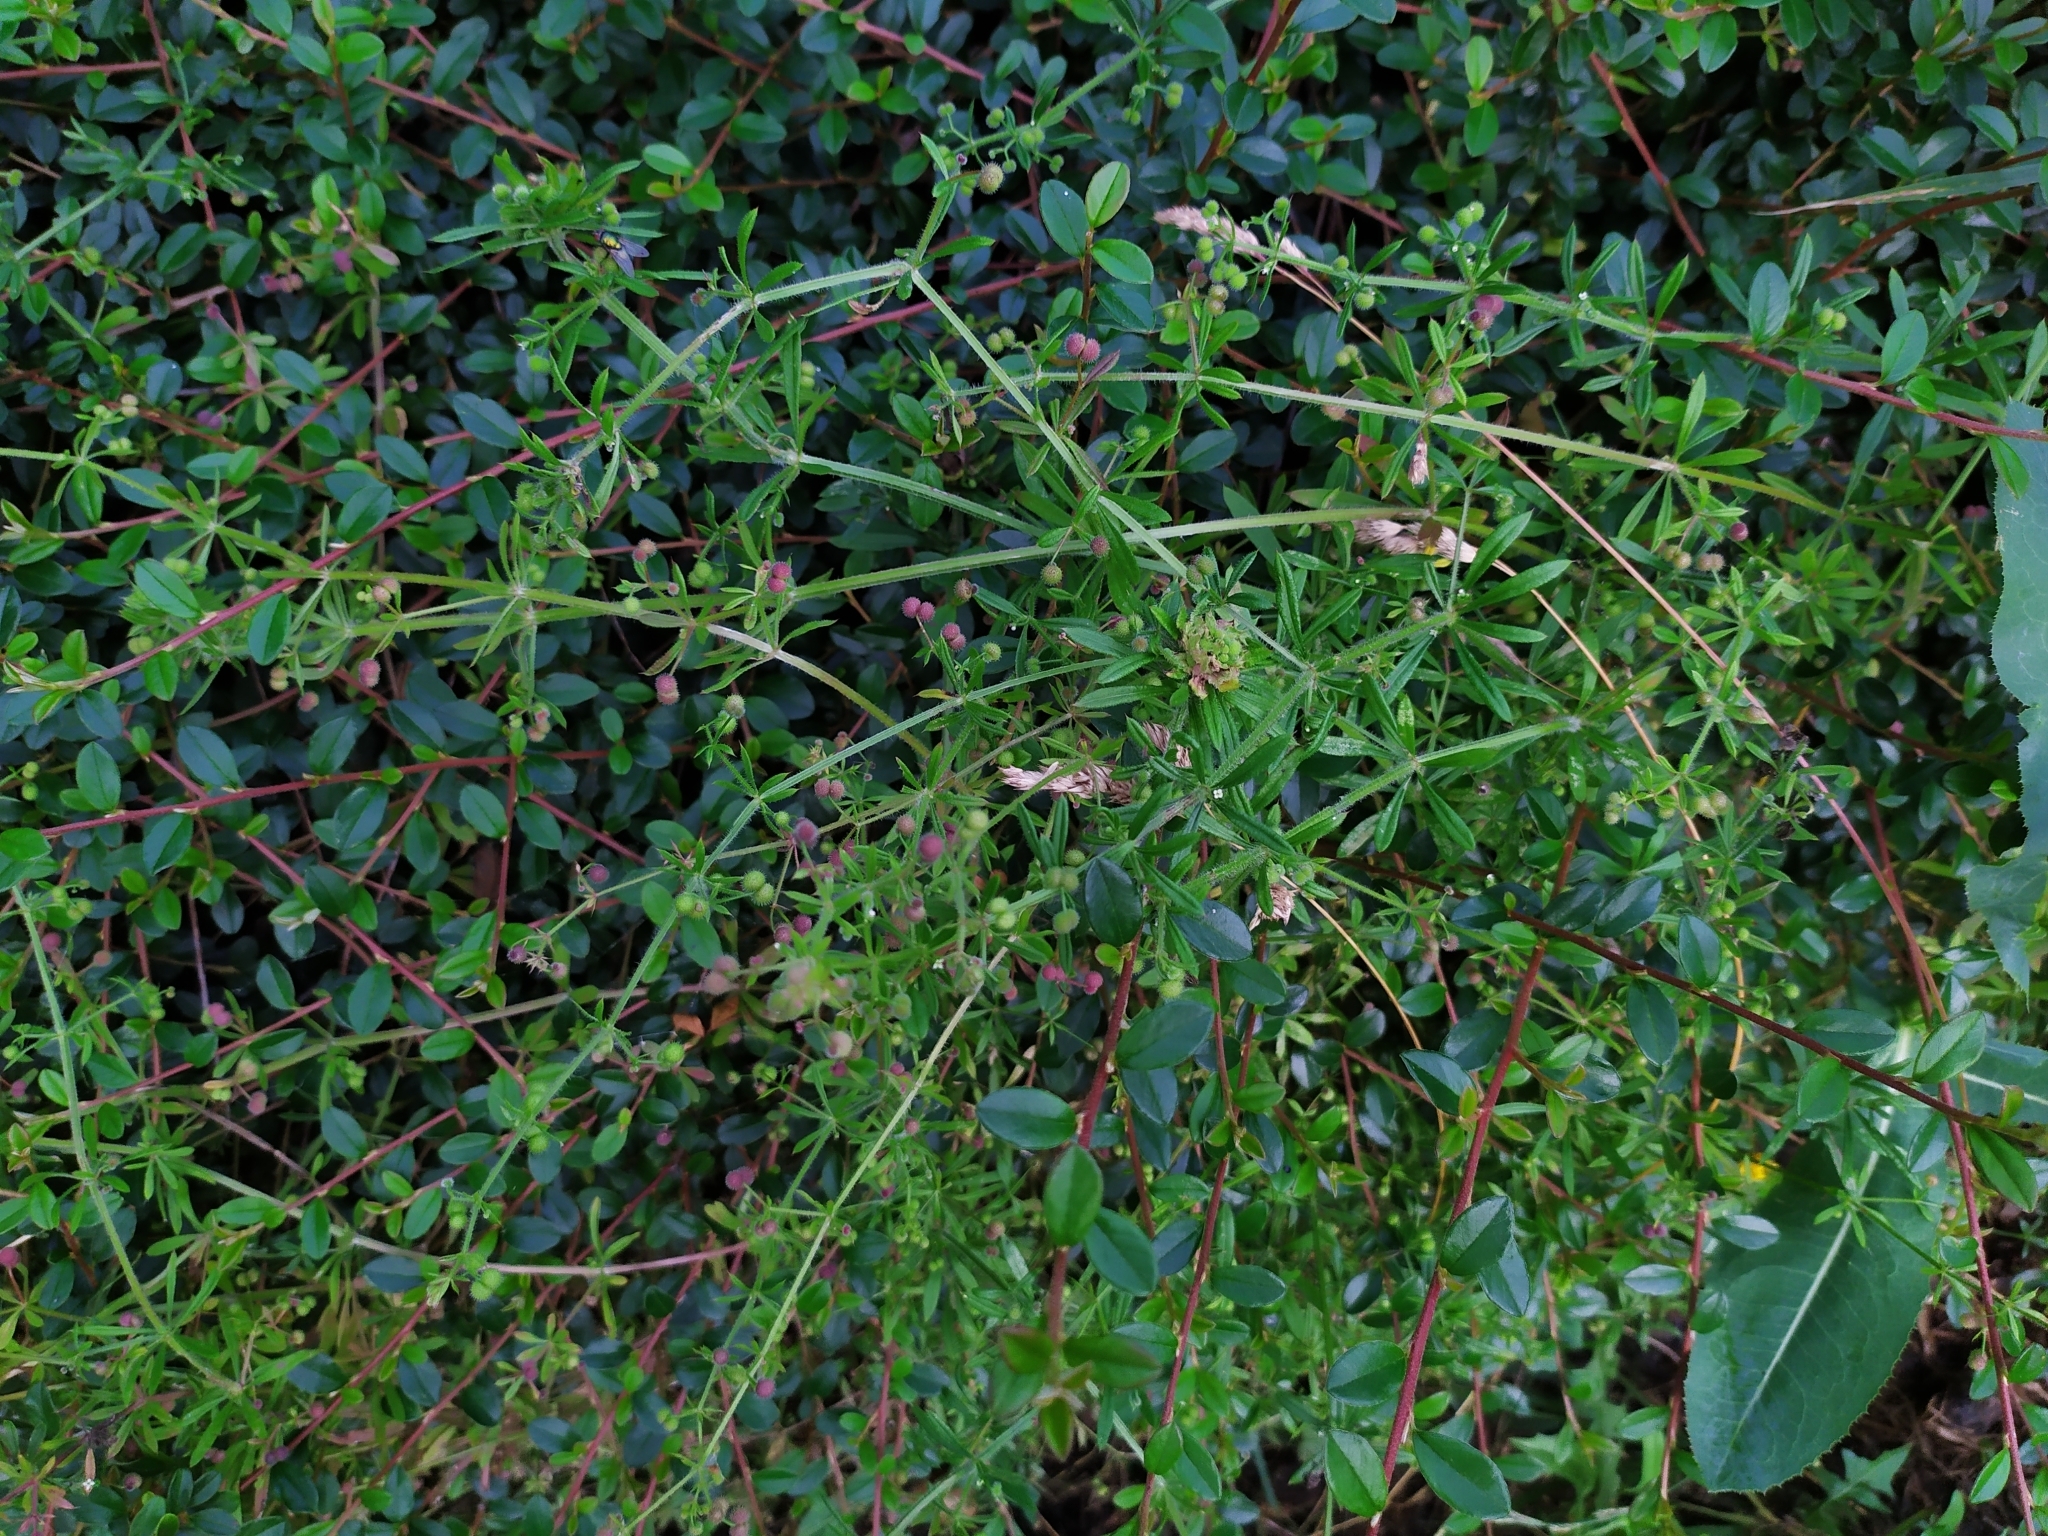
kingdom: Plantae
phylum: Tracheophyta
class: Magnoliopsida
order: Gentianales
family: Rubiaceae
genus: Galium
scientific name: Galium aparine
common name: Cleavers
